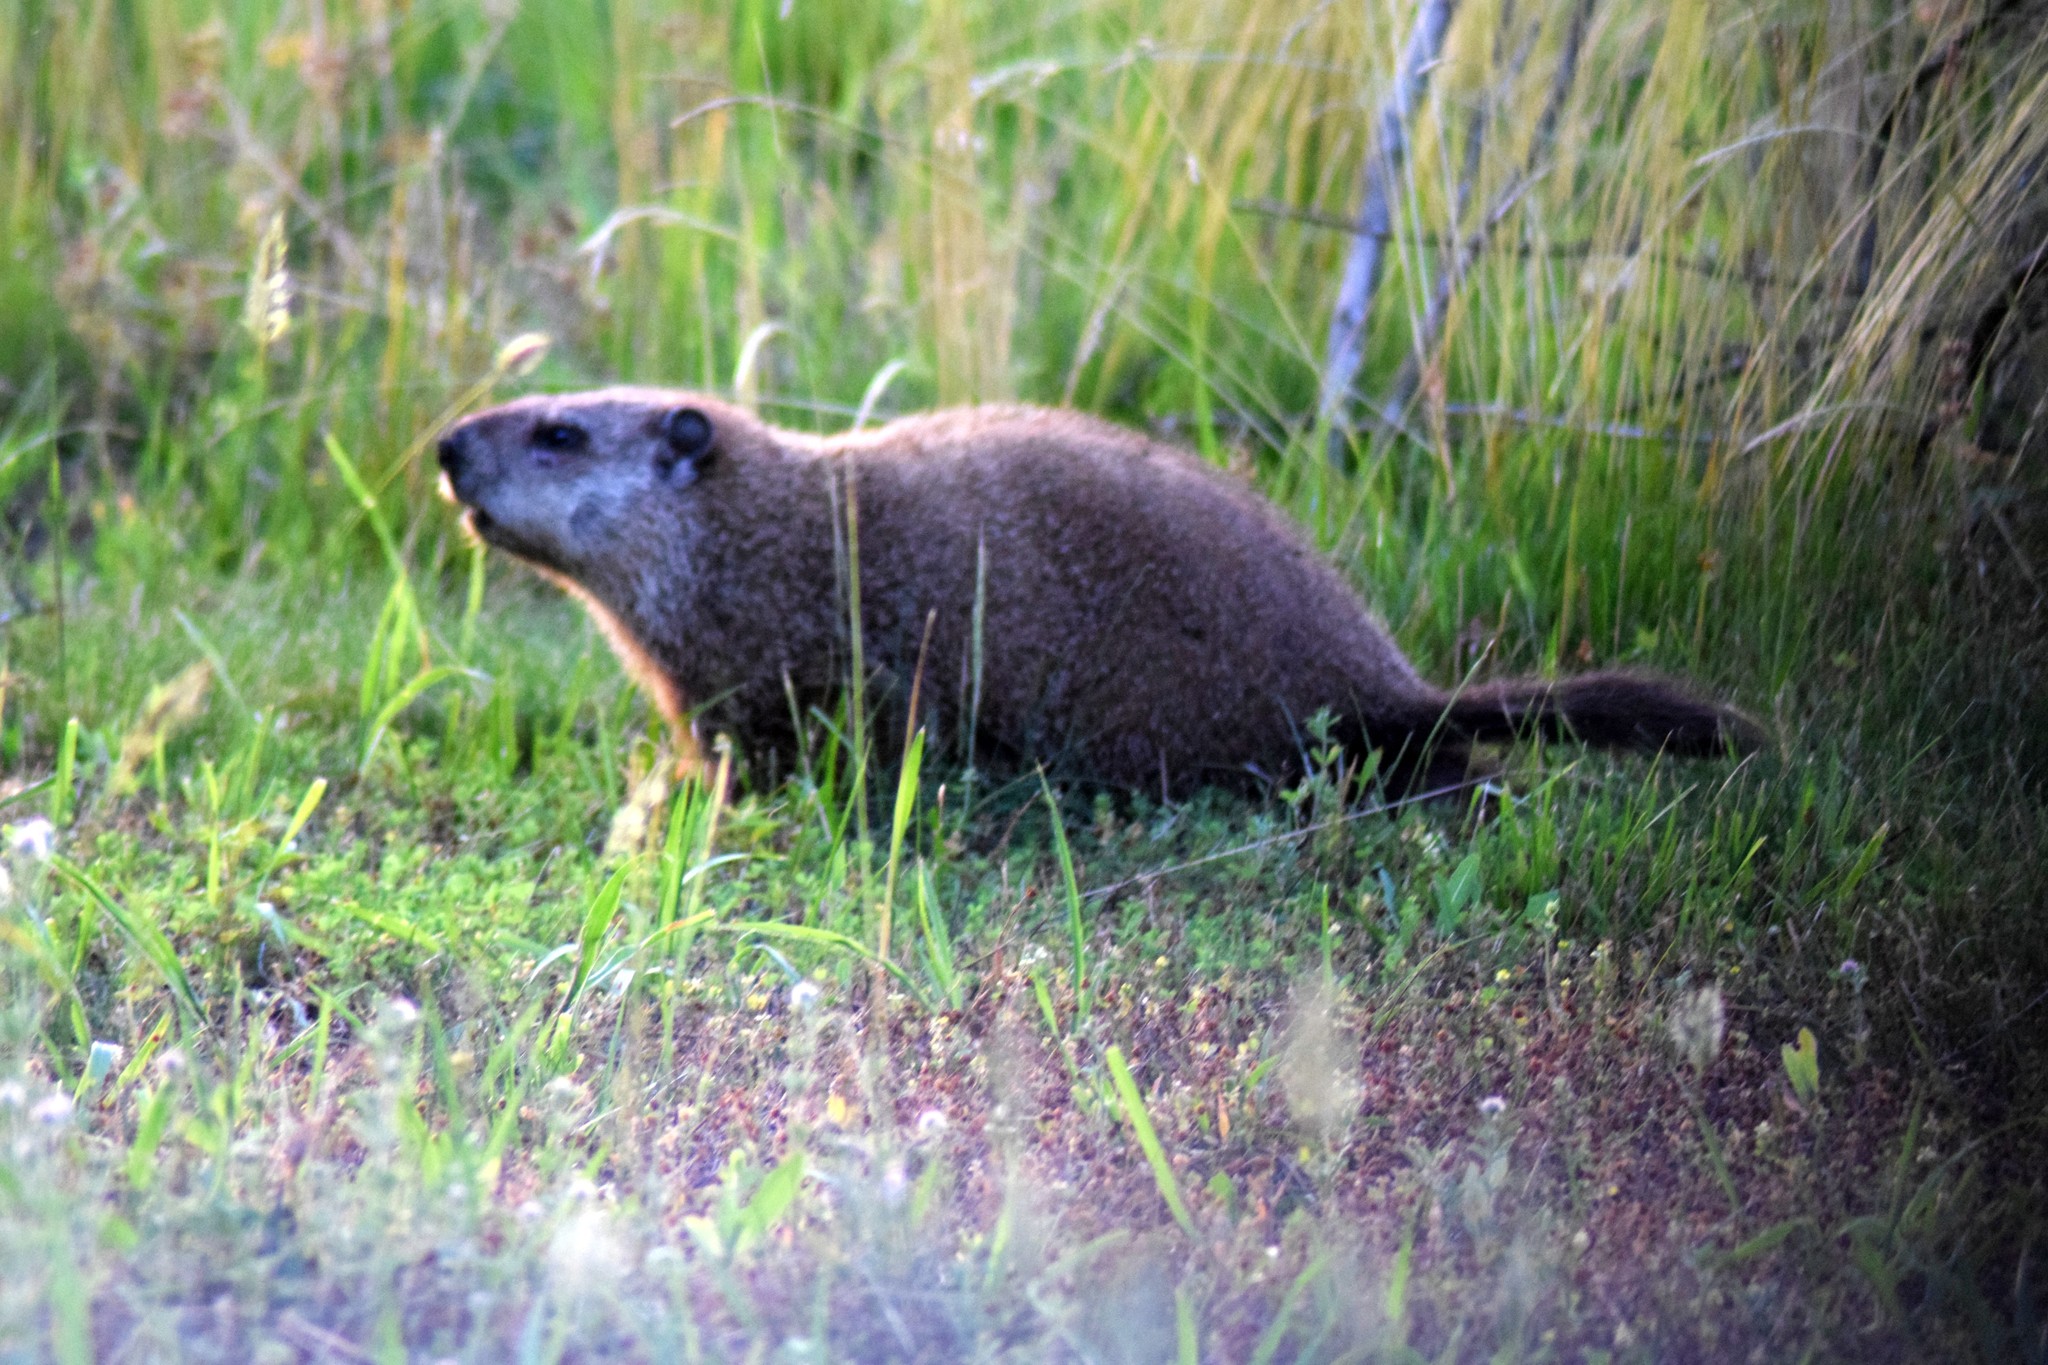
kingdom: Animalia
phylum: Chordata
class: Mammalia
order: Rodentia
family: Sciuridae
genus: Marmota
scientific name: Marmota monax
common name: Groundhog
